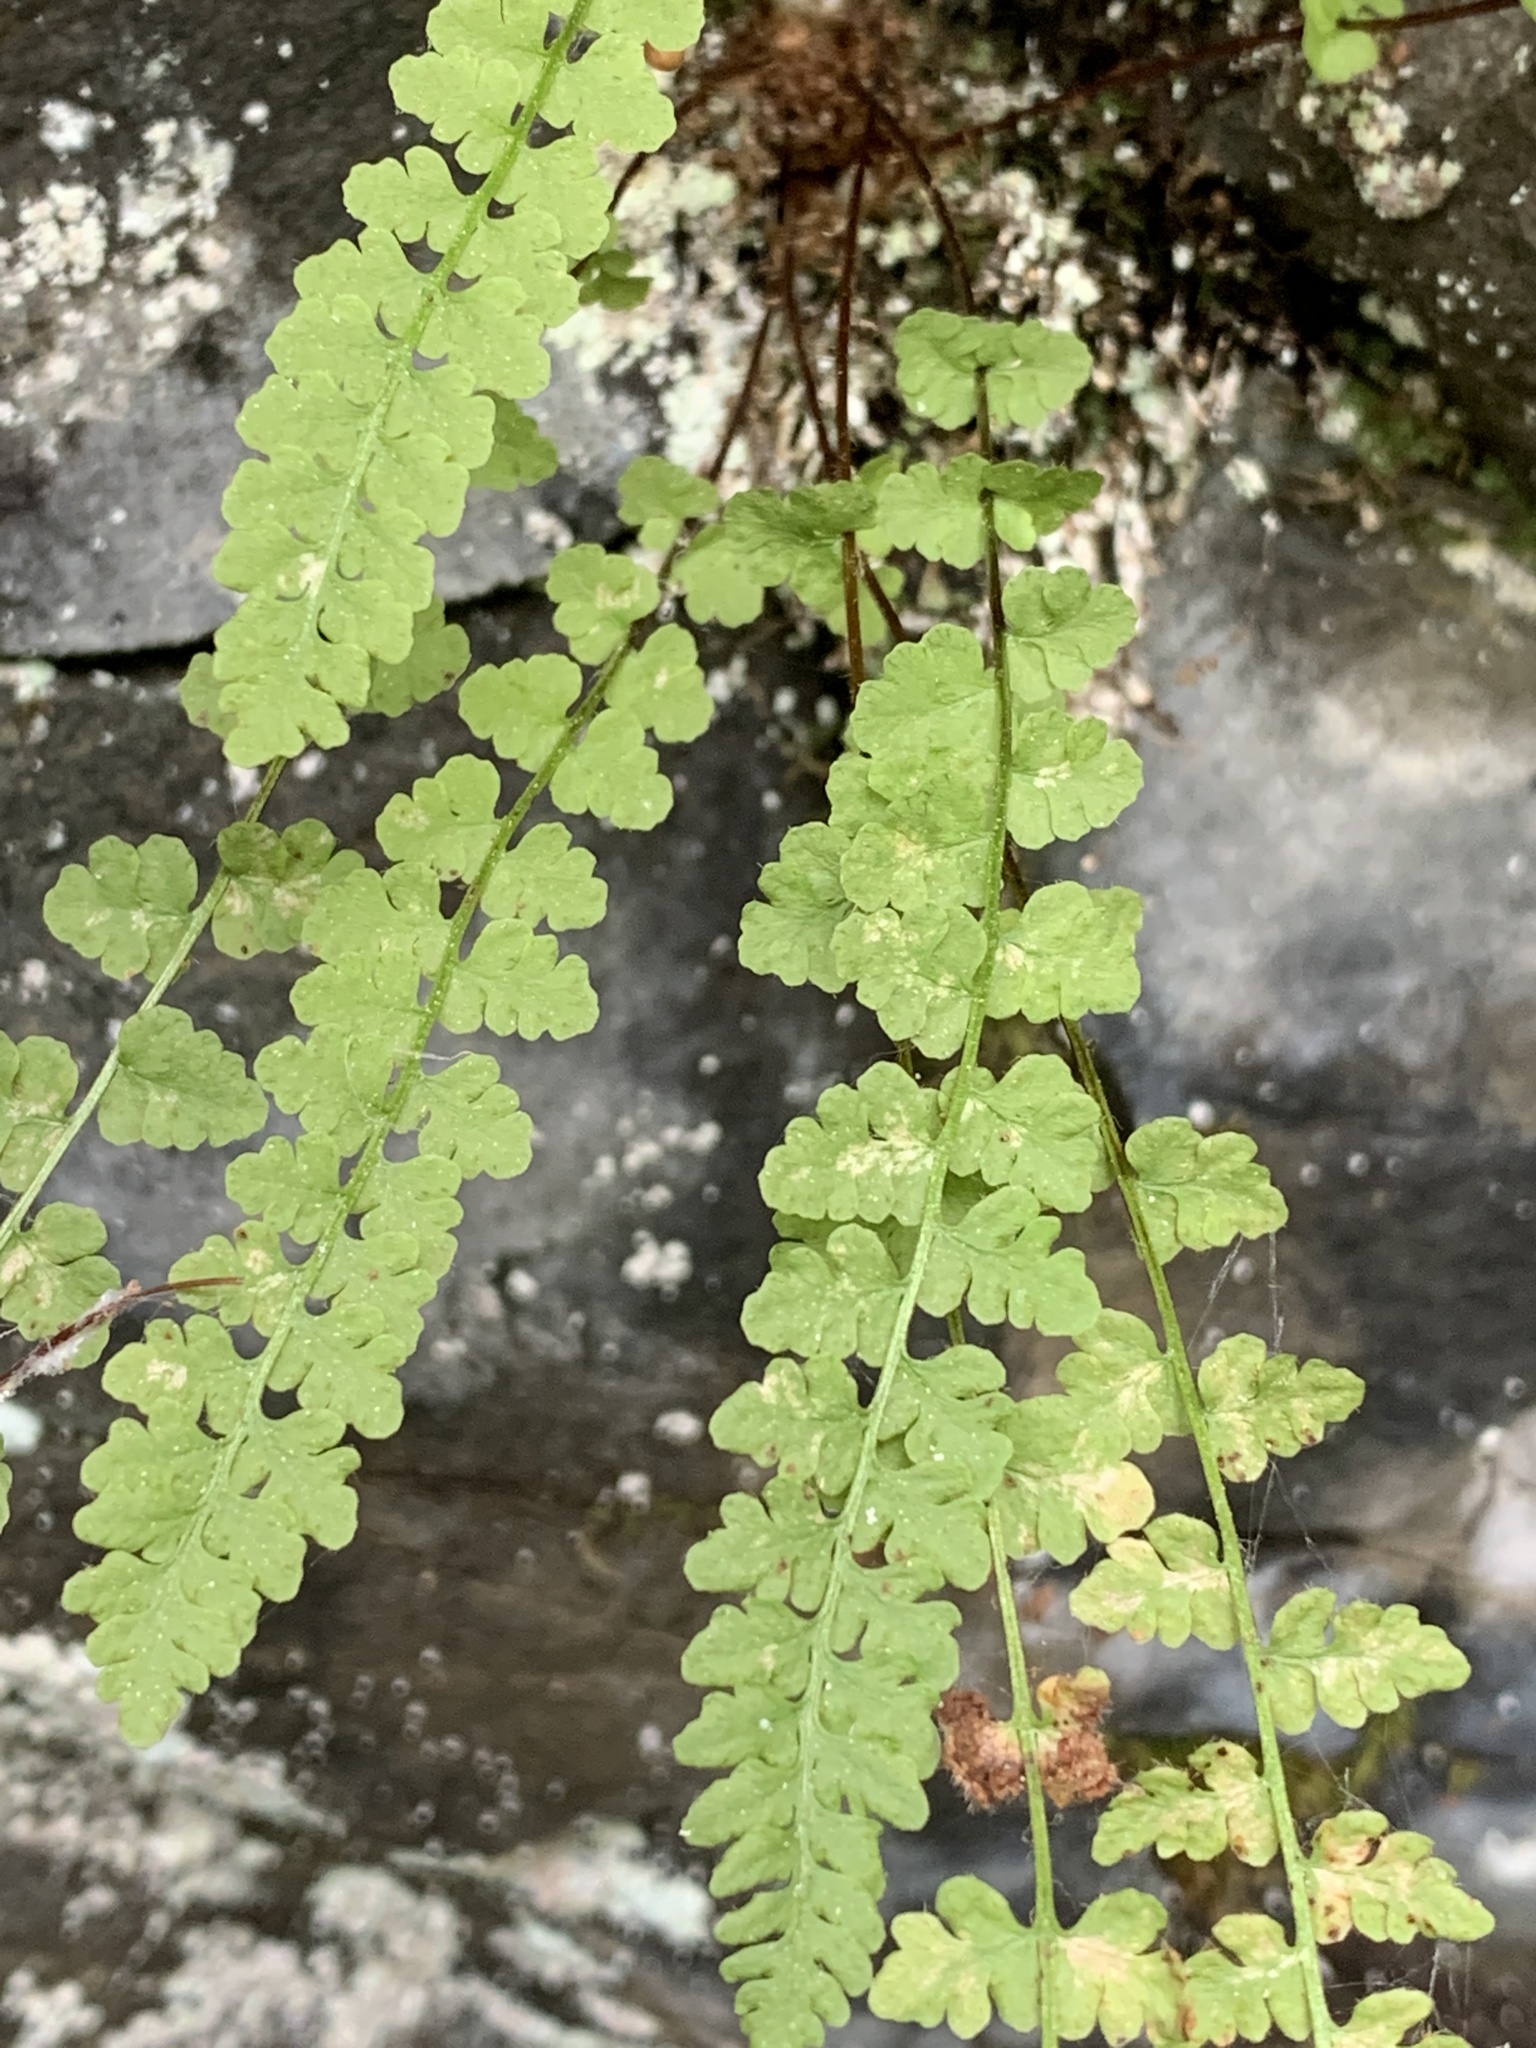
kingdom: Plantae
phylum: Tracheophyta
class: Polypodiopsida
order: Polypodiales
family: Woodsiaceae
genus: Woodsia
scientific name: Woodsia alpina
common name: Alpine woodsia
